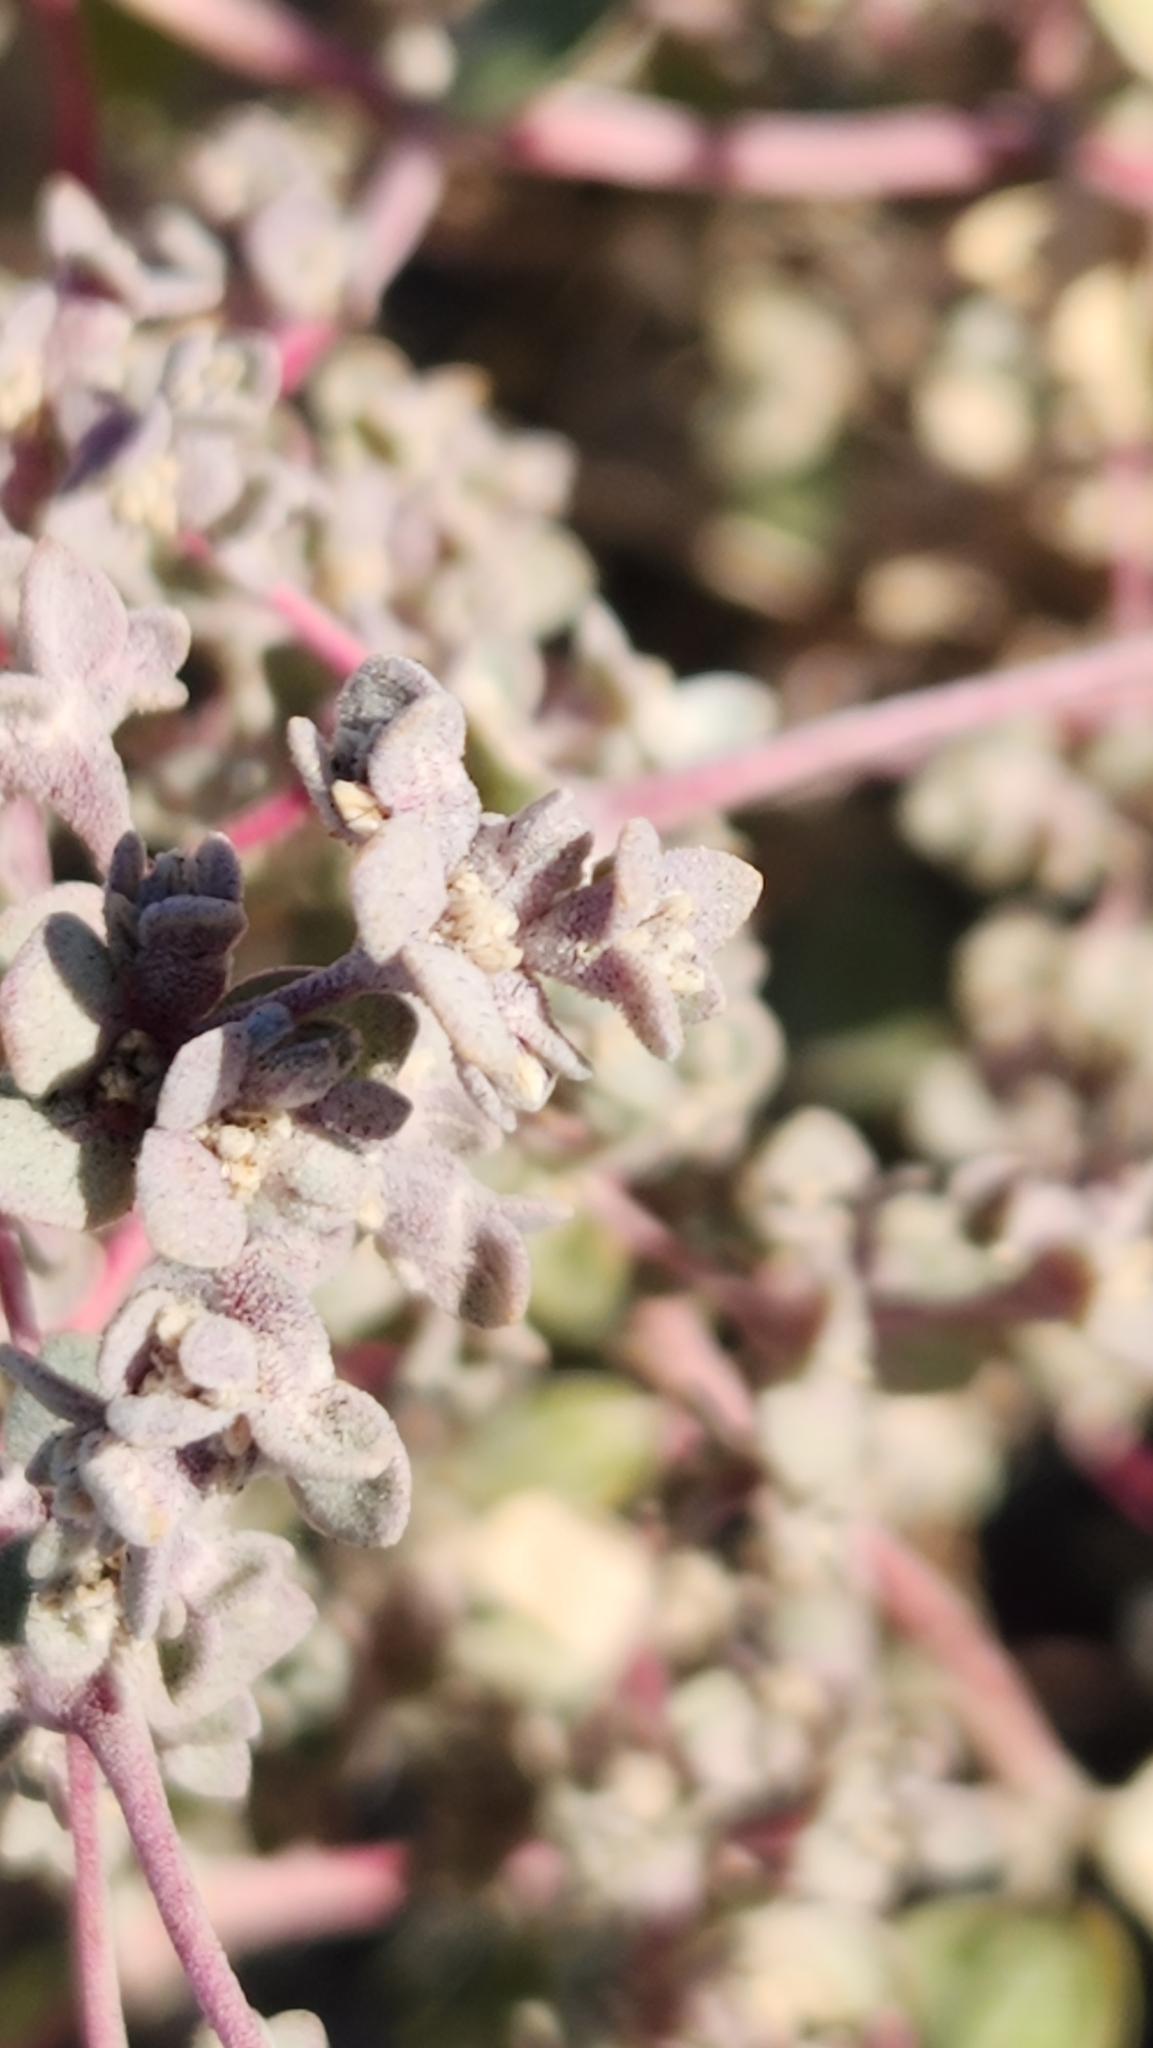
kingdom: Plantae
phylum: Tracheophyta
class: Magnoliopsida
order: Caryophyllales
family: Amaranthaceae
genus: Tidestromia
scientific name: Tidestromia suffruticosa
